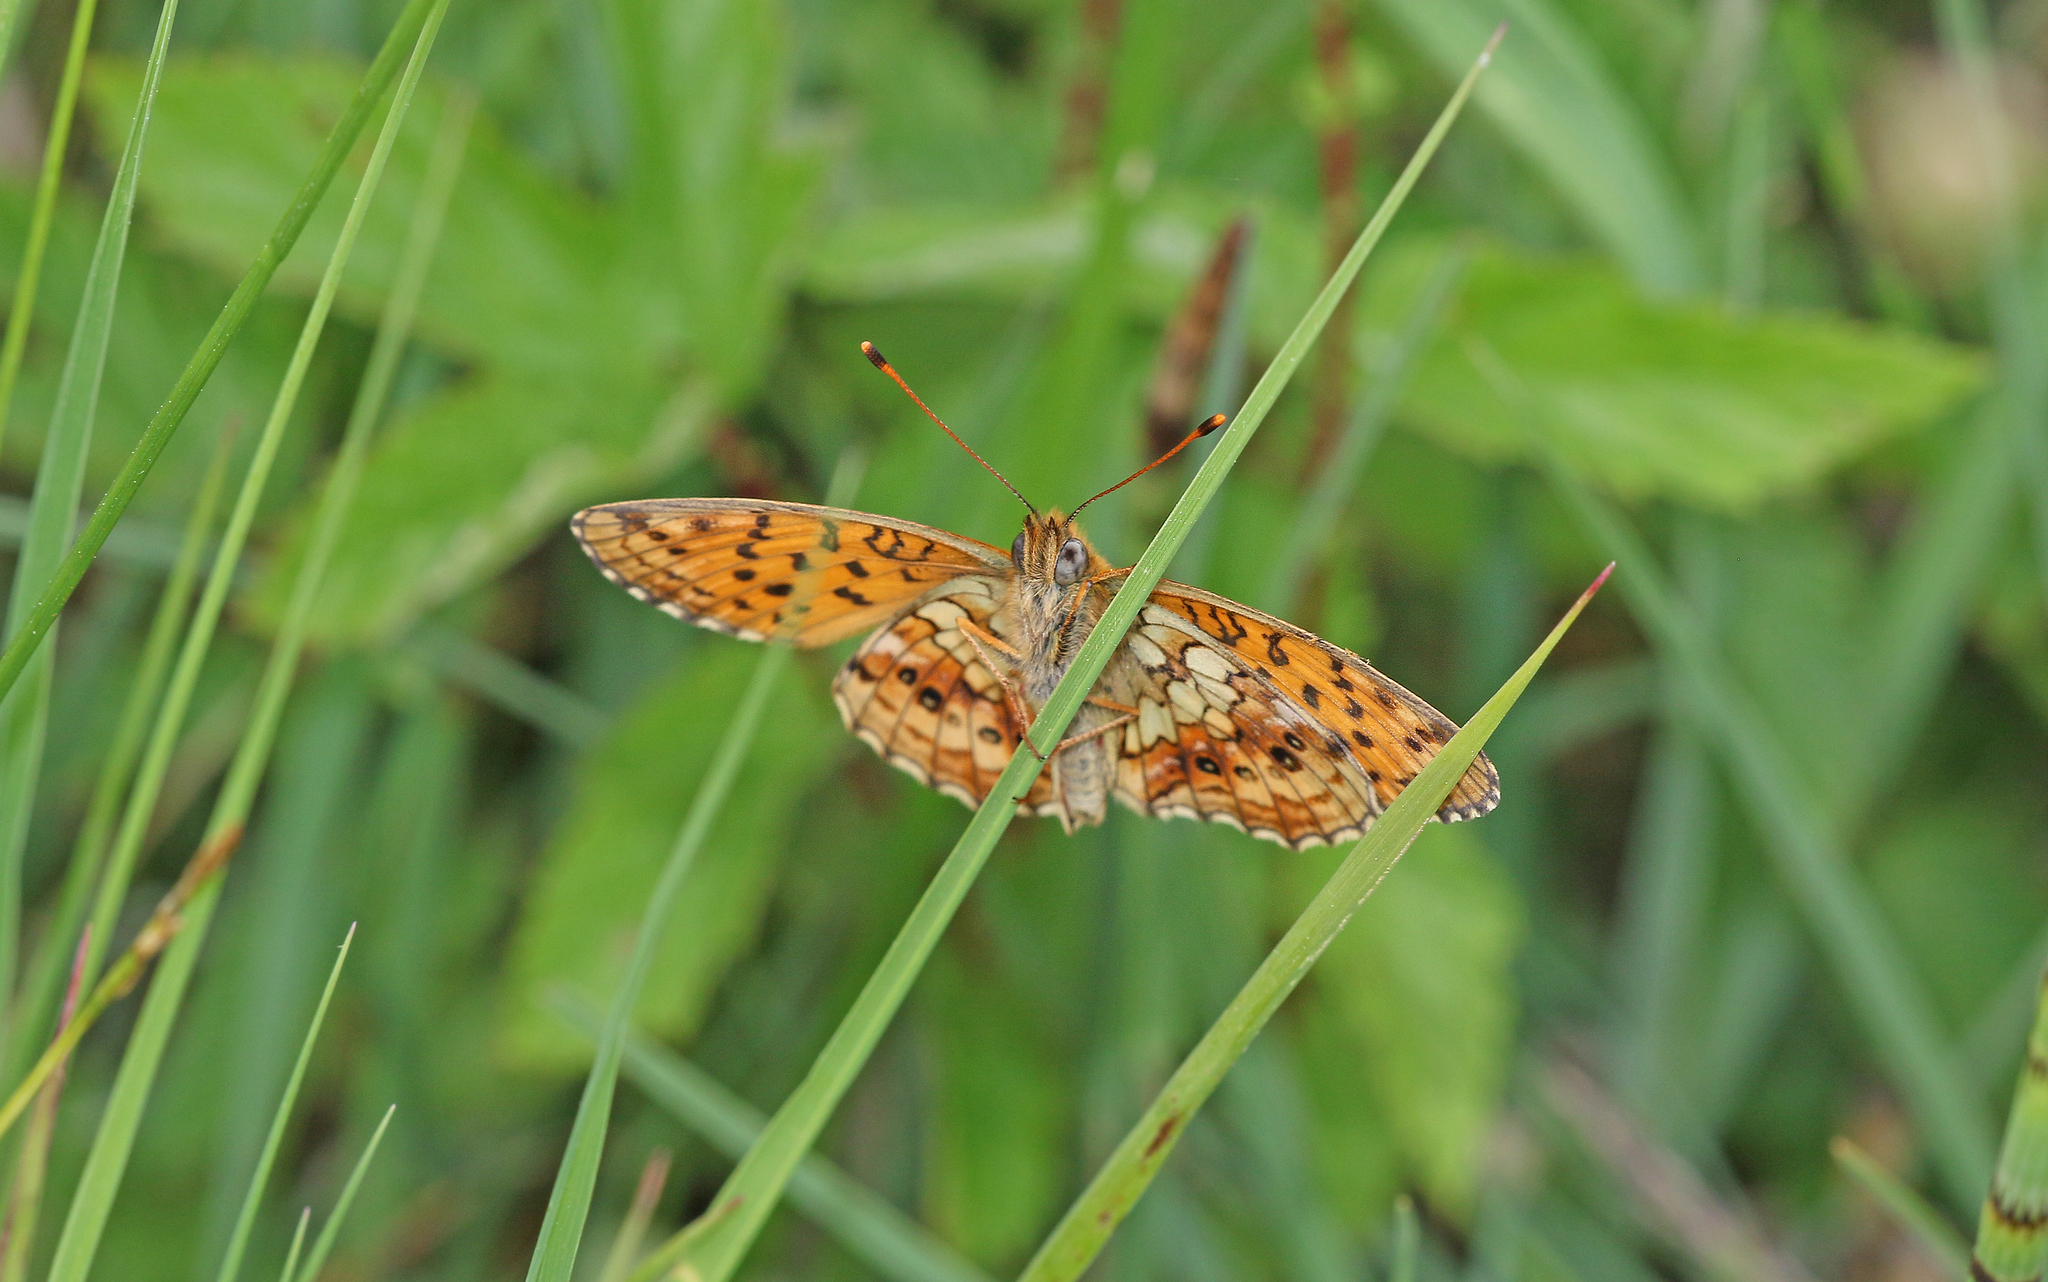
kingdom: Animalia
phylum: Arthropoda
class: Insecta
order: Lepidoptera
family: Nymphalidae
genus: Brenthis
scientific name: Brenthis ino
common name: Lesser marbled fritillary
